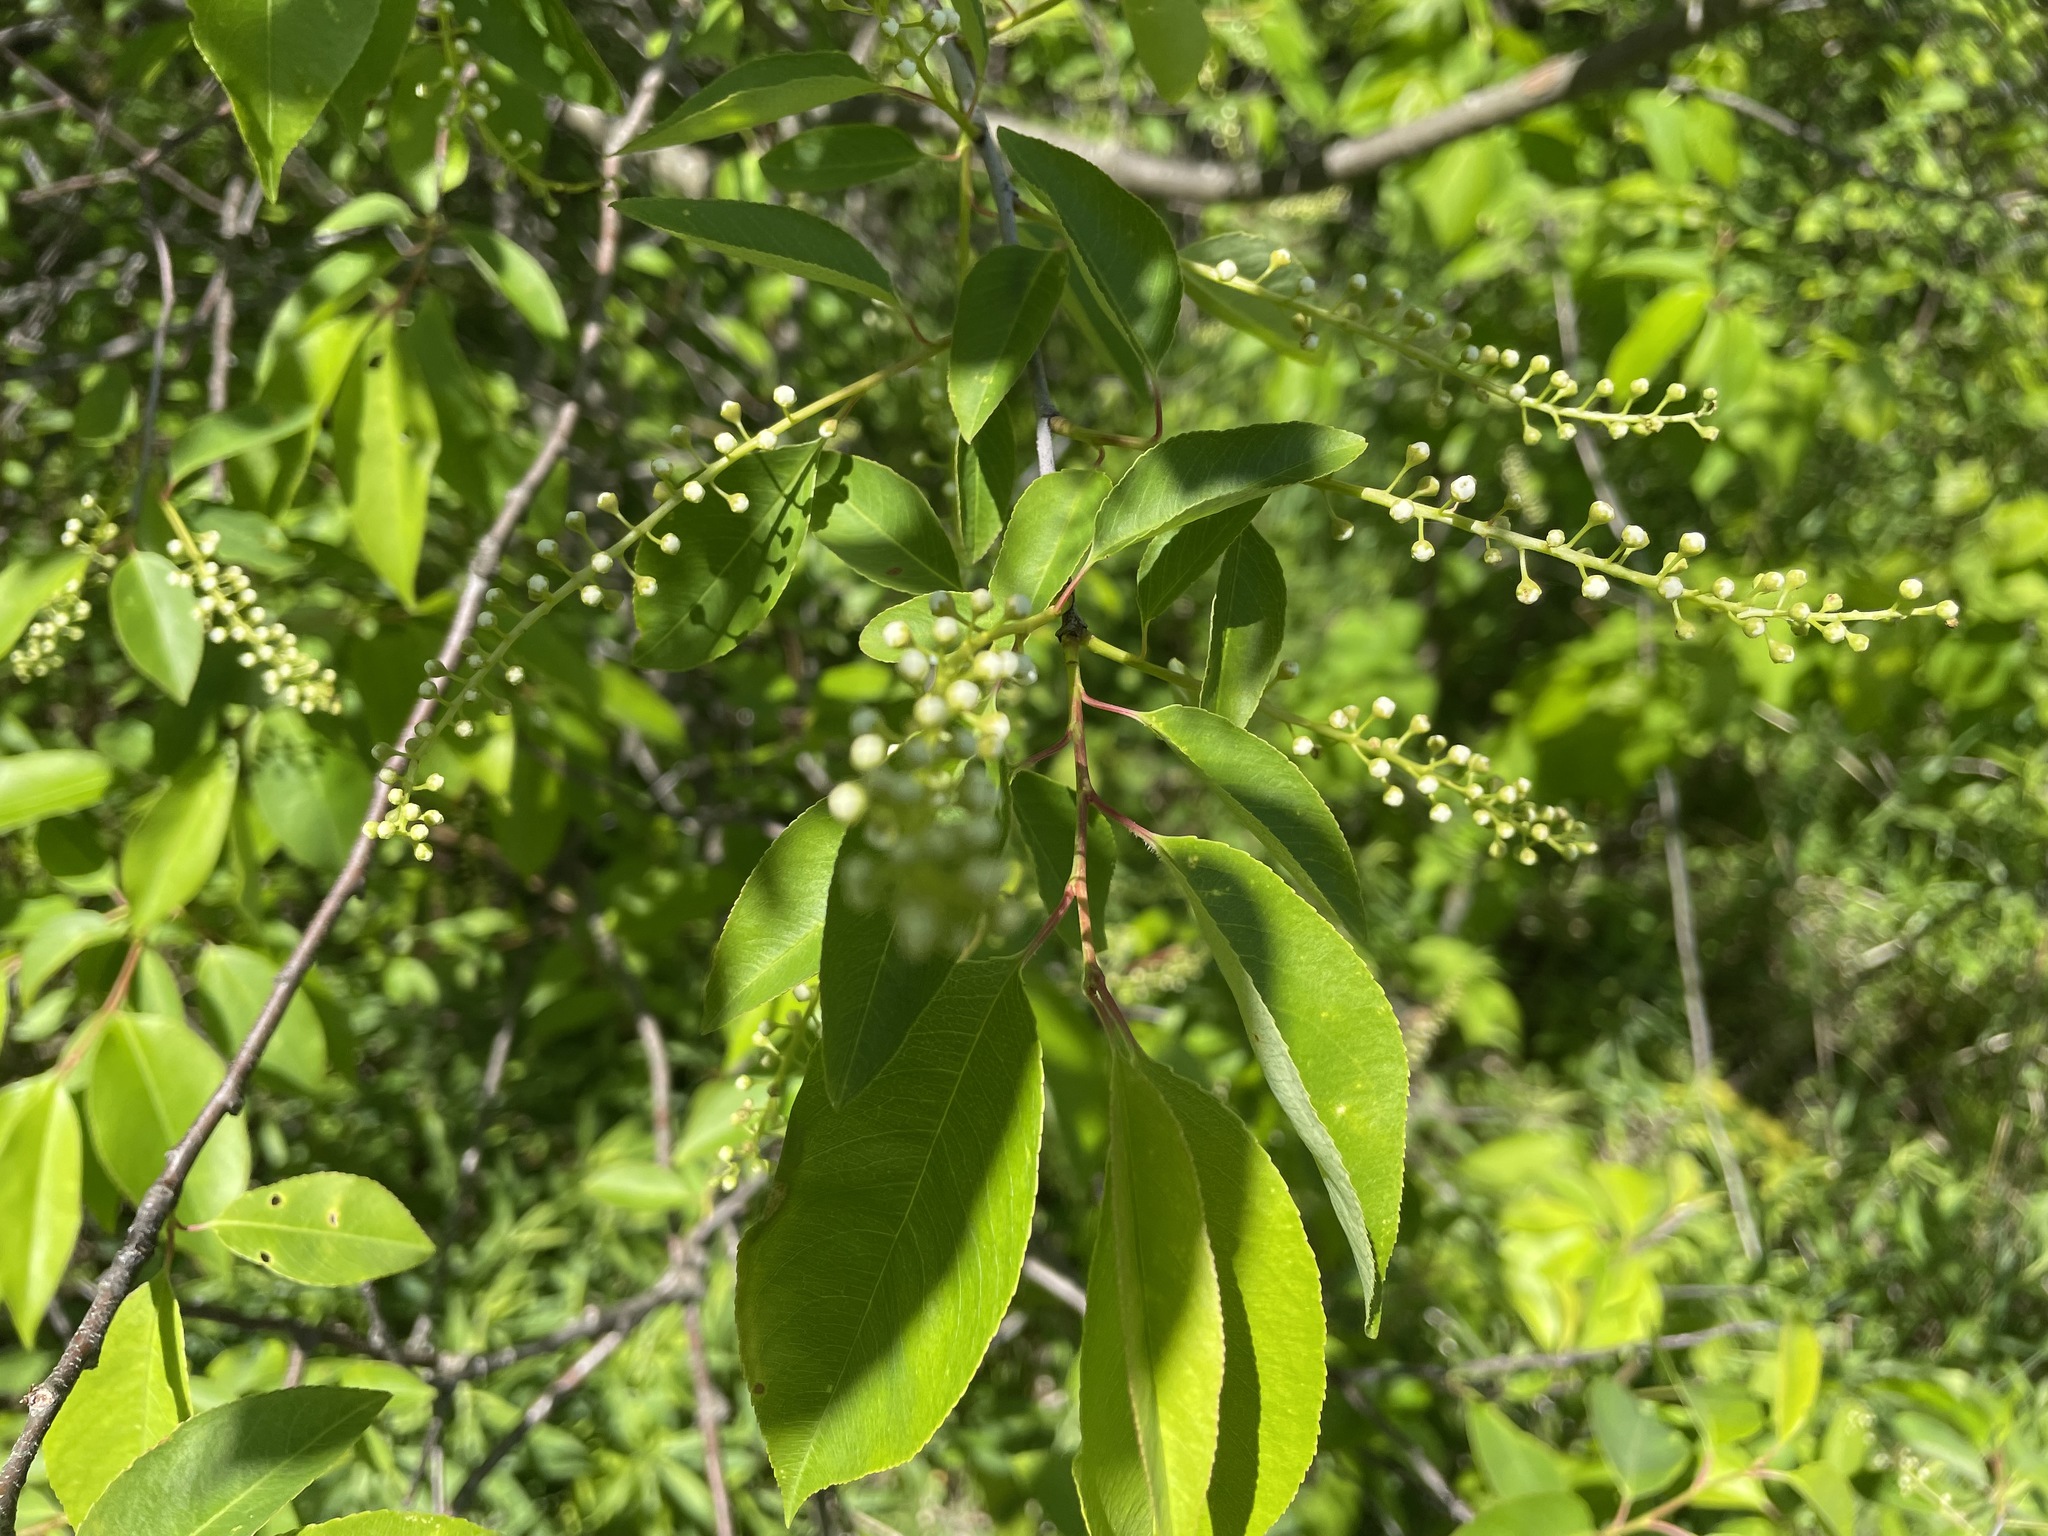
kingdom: Plantae
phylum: Tracheophyta
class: Magnoliopsida
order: Rosales
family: Rosaceae
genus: Prunus
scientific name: Prunus serotina
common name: Black cherry
